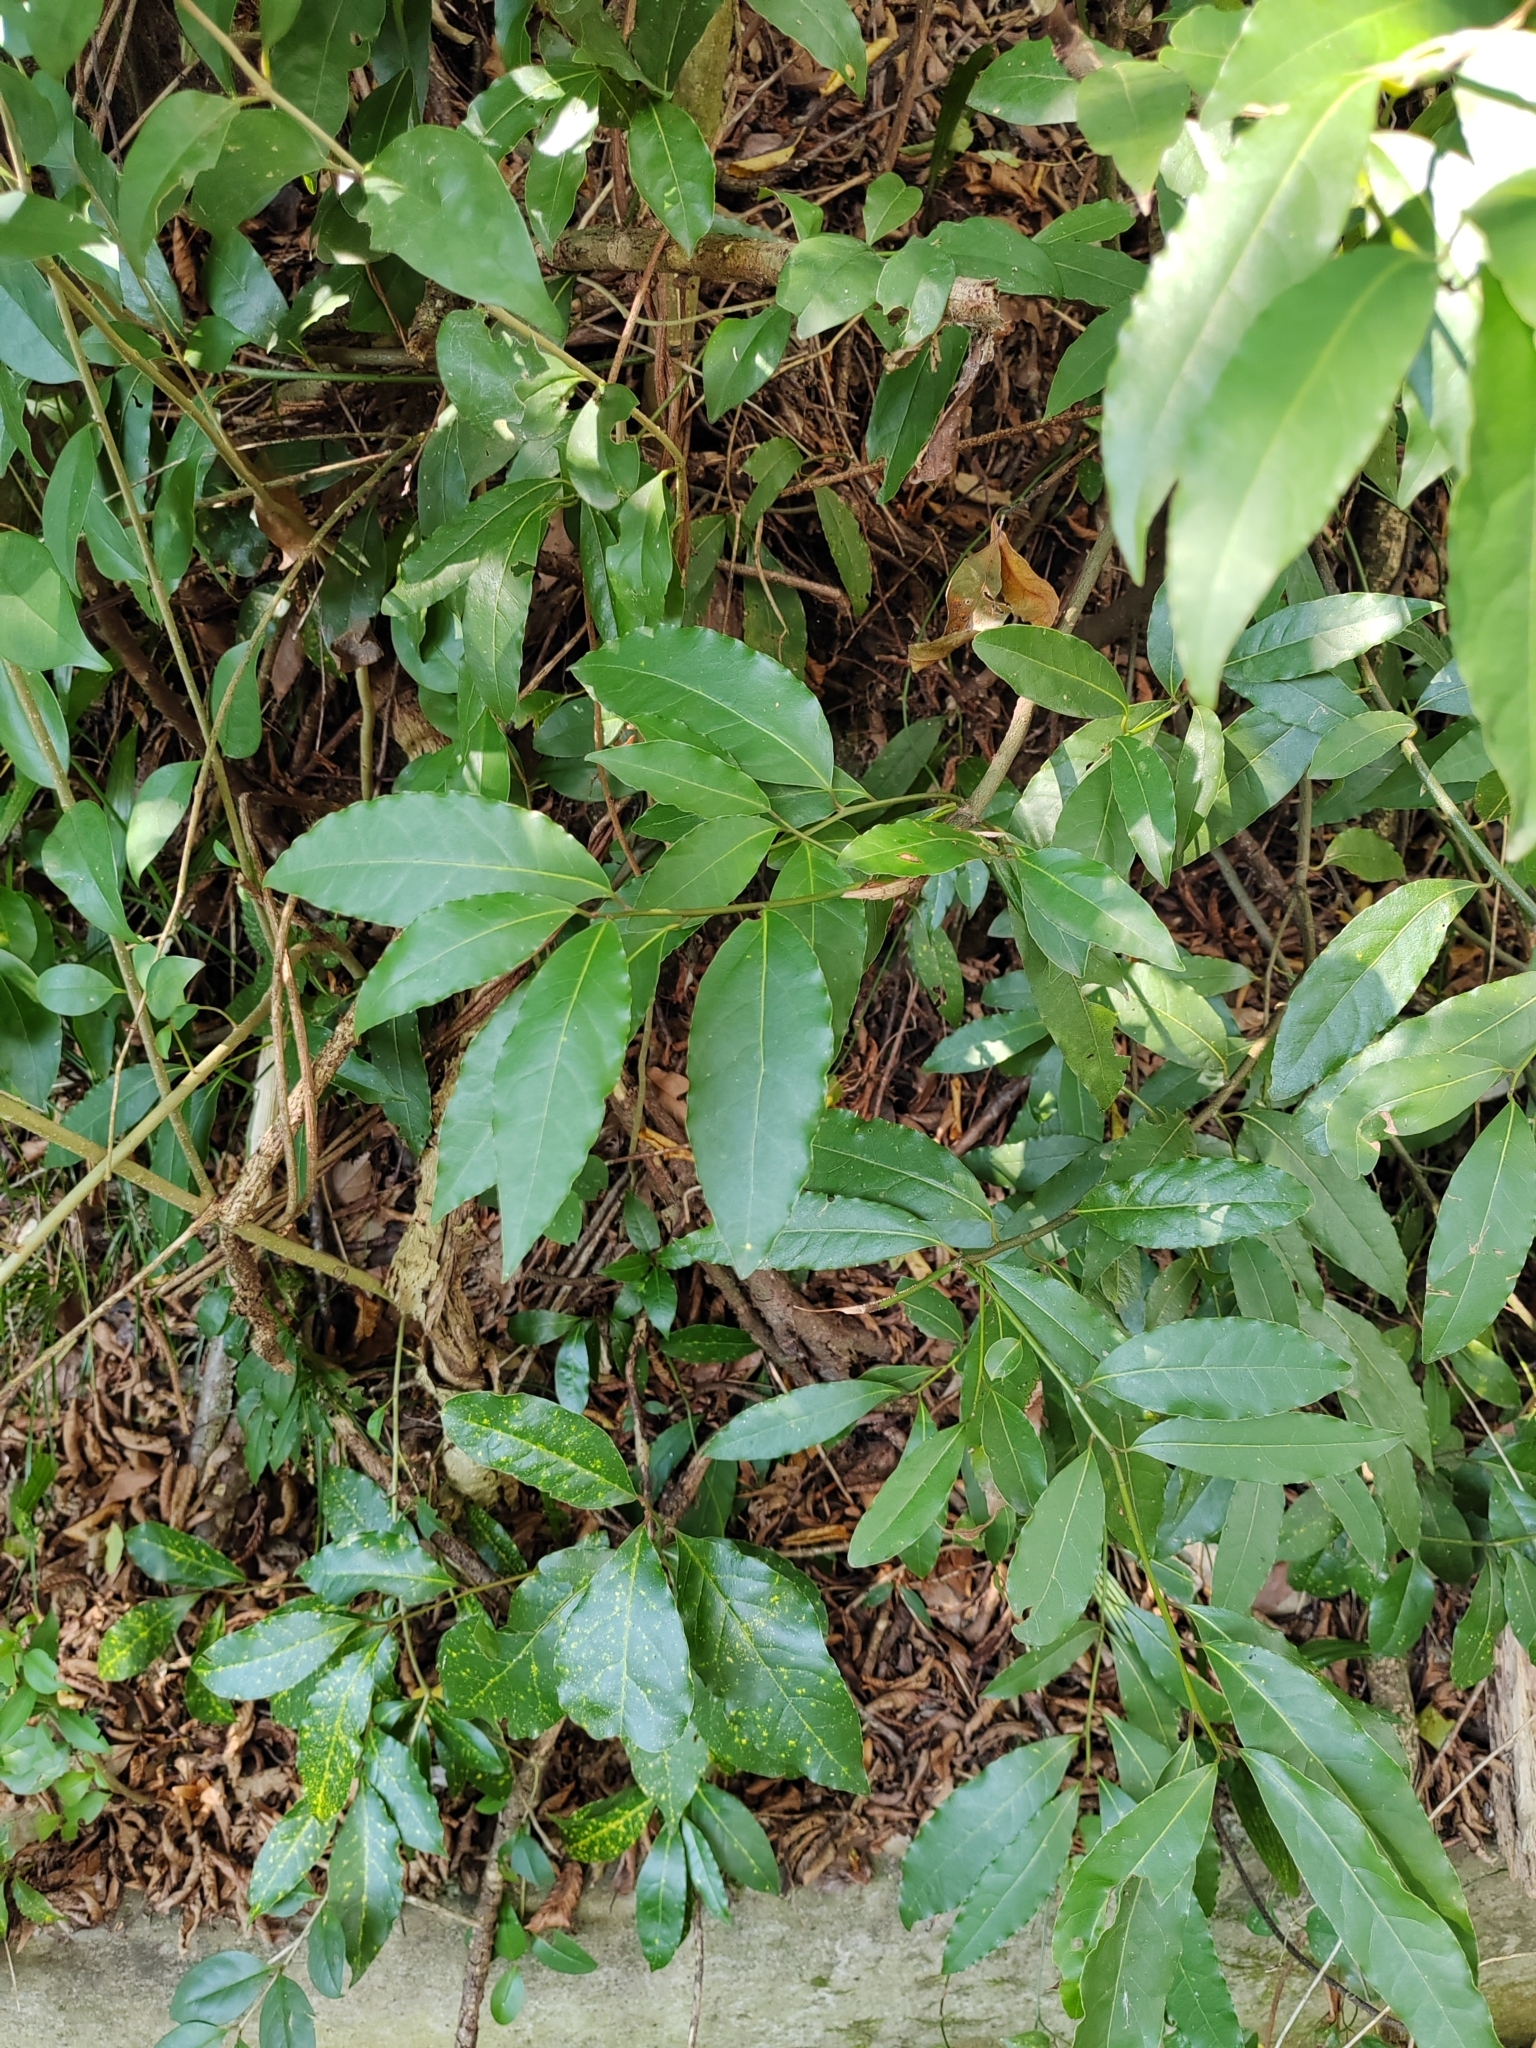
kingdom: Plantae
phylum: Tracheophyta
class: Magnoliopsida
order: Laurales
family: Lauraceae
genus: Laurus
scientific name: Laurus nobilis
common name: Bay
